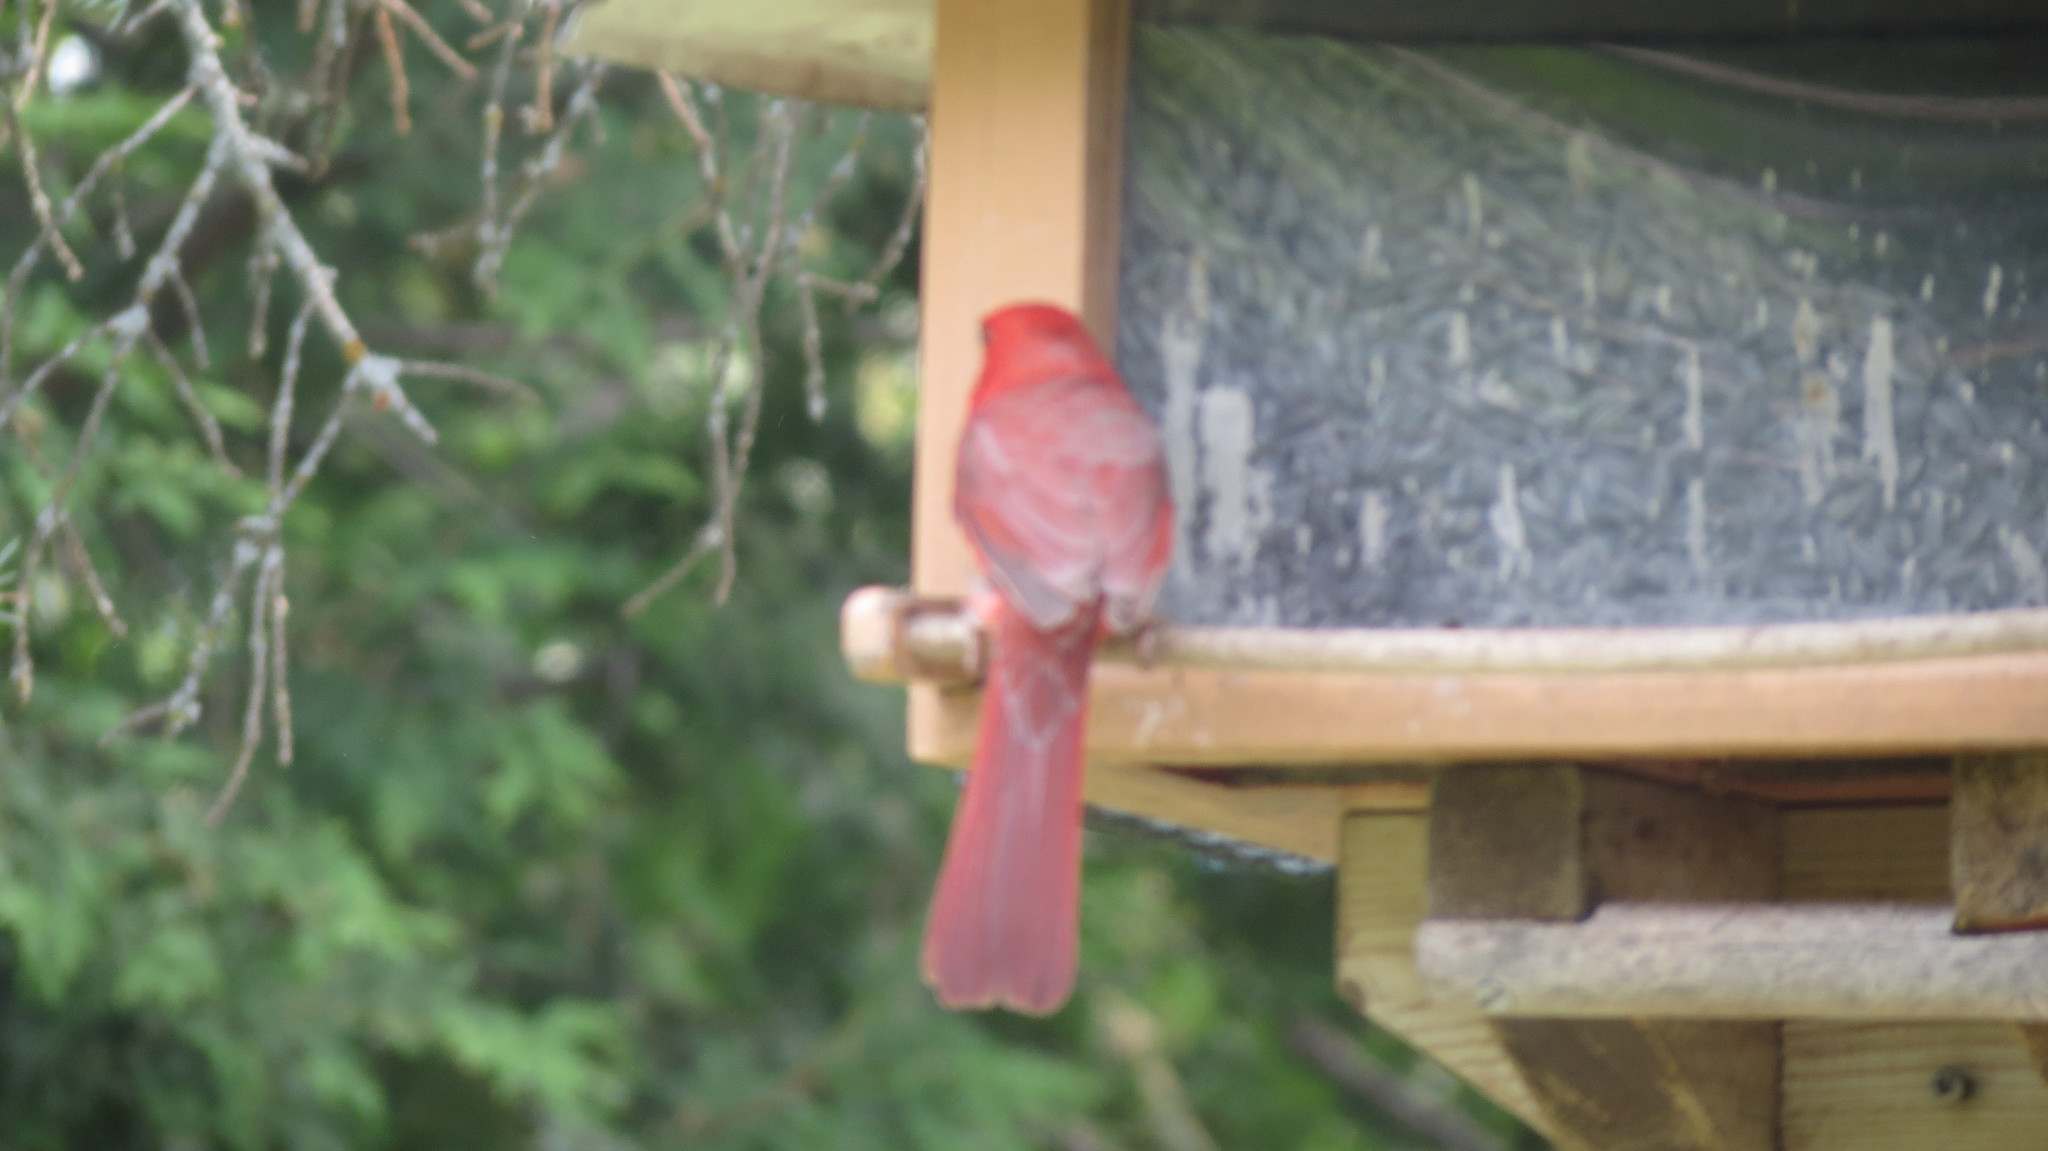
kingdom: Animalia
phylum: Chordata
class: Aves
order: Passeriformes
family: Cardinalidae
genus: Cardinalis
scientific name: Cardinalis cardinalis
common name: Northern cardinal
